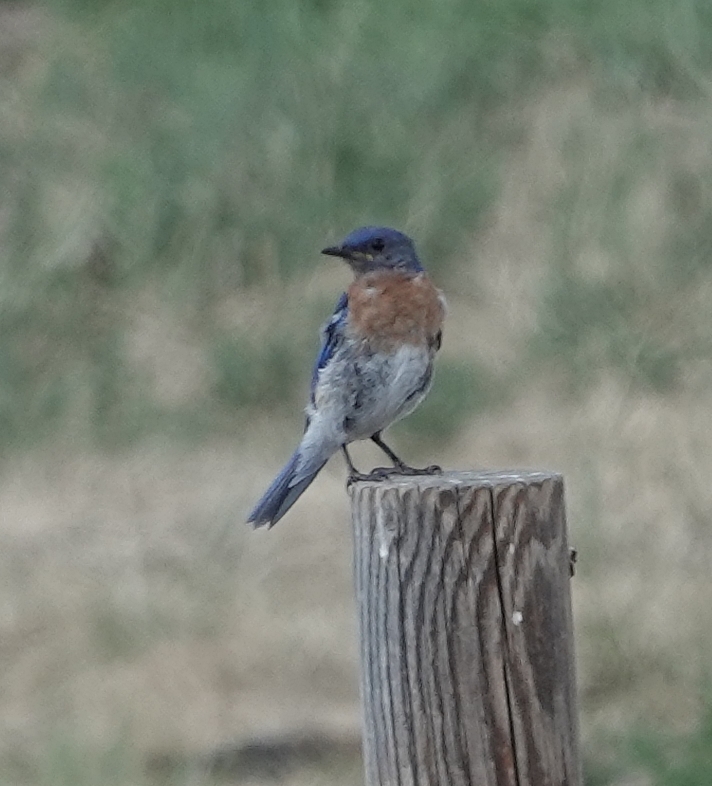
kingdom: Animalia
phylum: Chordata
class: Aves
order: Passeriformes
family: Turdidae
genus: Sialia
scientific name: Sialia sialis
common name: Eastern bluebird
